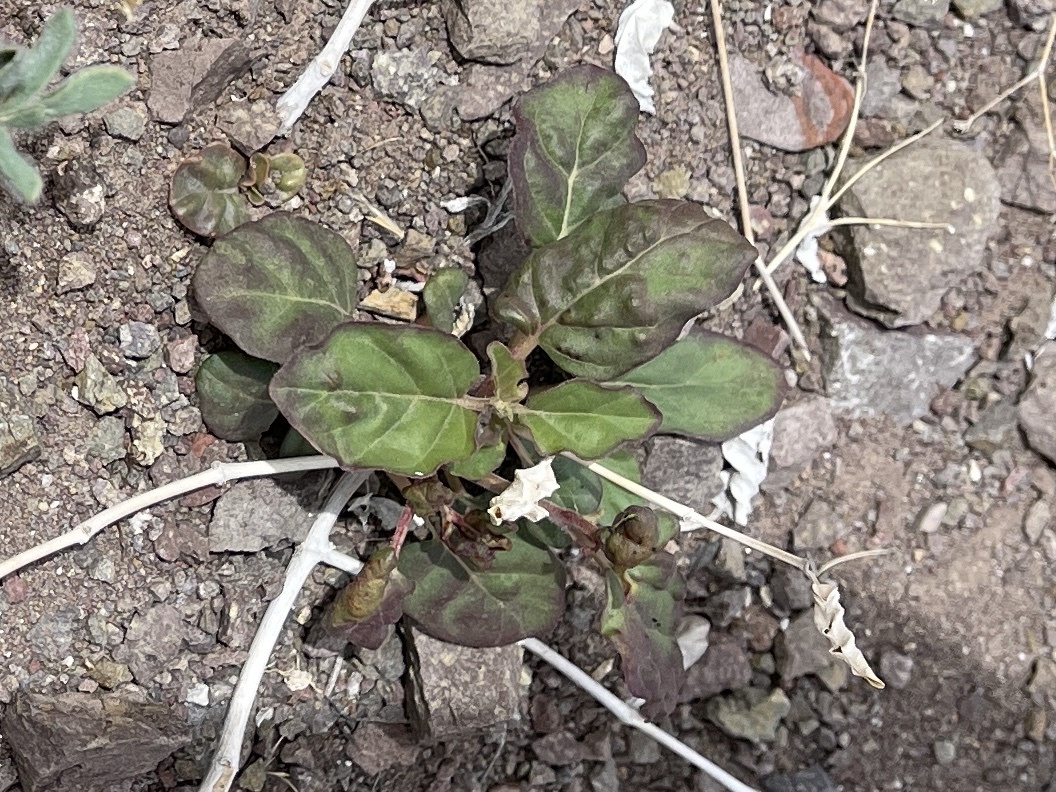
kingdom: Plantae
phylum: Tracheophyta
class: Magnoliopsida
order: Caryophyllales
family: Nyctaginaceae
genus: Boerhavia
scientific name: Boerhavia coccinea
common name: Scarlet spiderling
